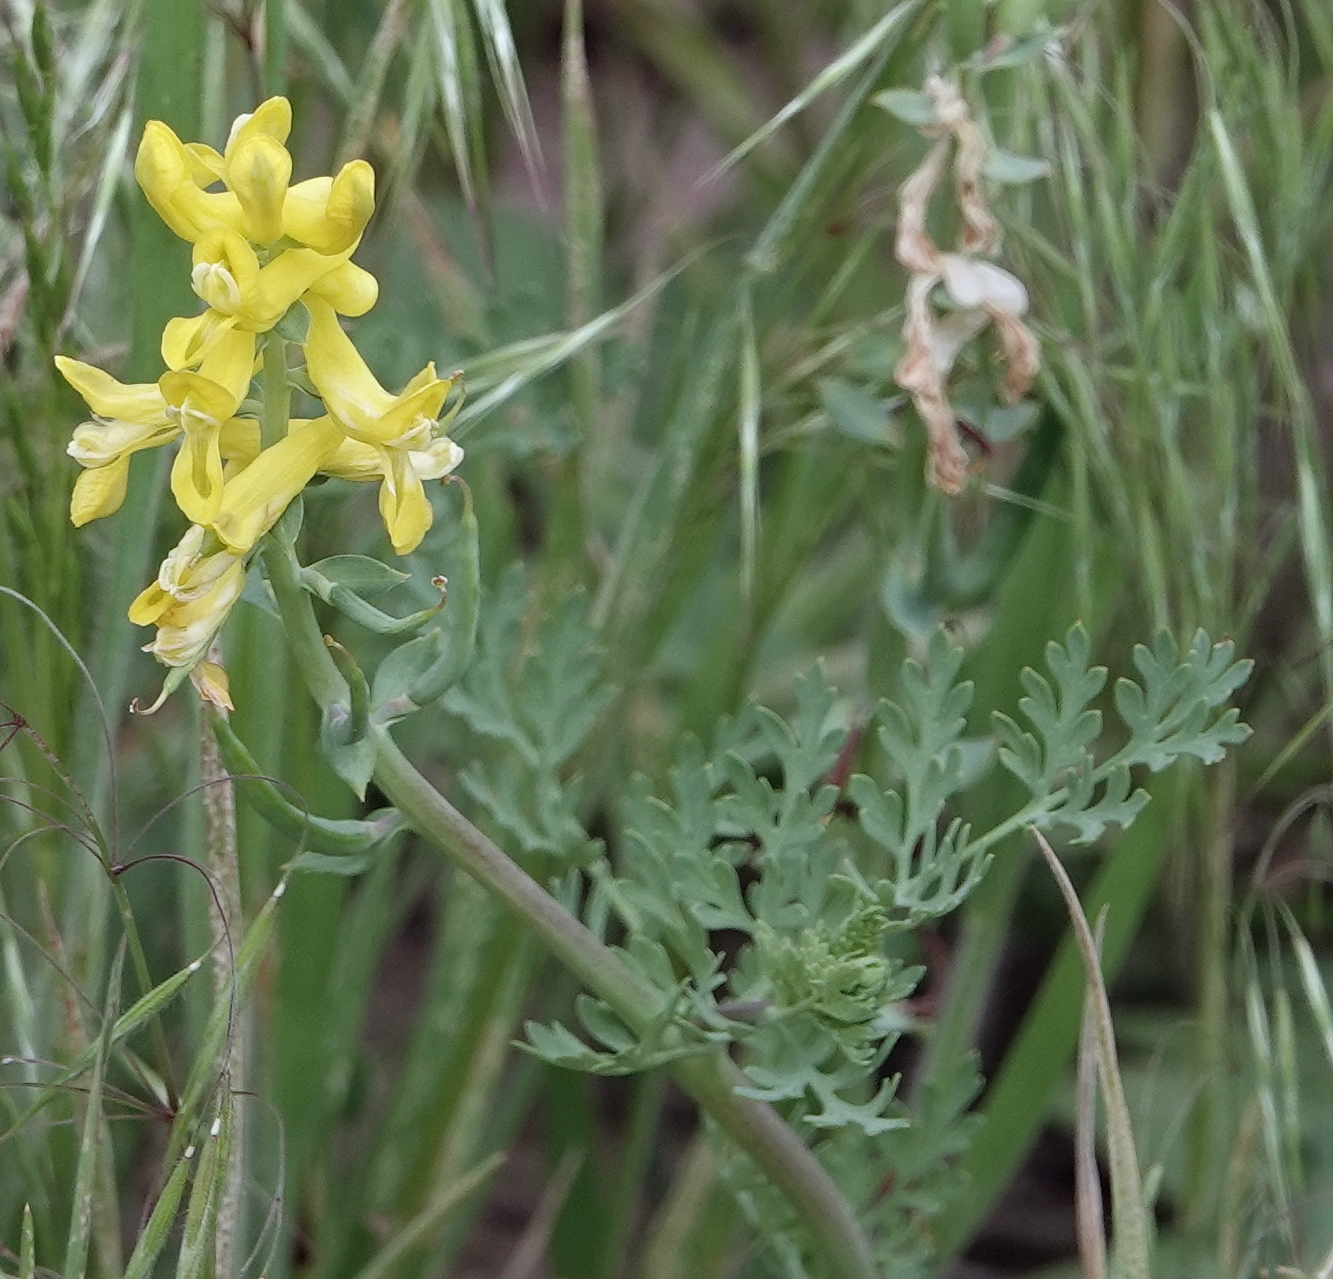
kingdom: Plantae
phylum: Tracheophyta
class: Magnoliopsida
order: Ranunculales
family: Papaveraceae
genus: Corydalis
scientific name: Corydalis aurea
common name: Golden corydalis
